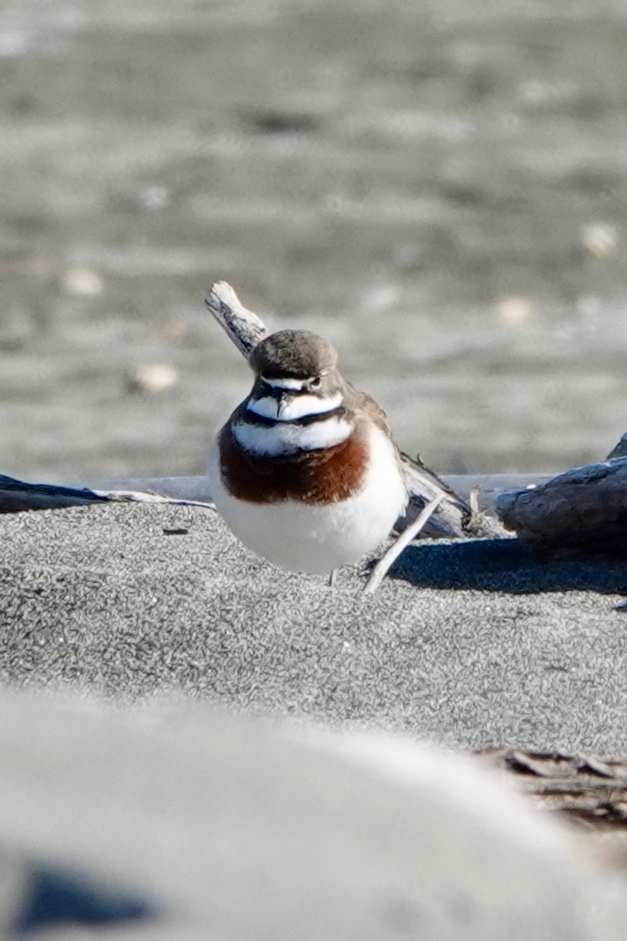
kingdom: Animalia
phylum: Chordata
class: Aves
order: Charadriiformes
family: Charadriidae
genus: Anarhynchus
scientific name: Anarhynchus
